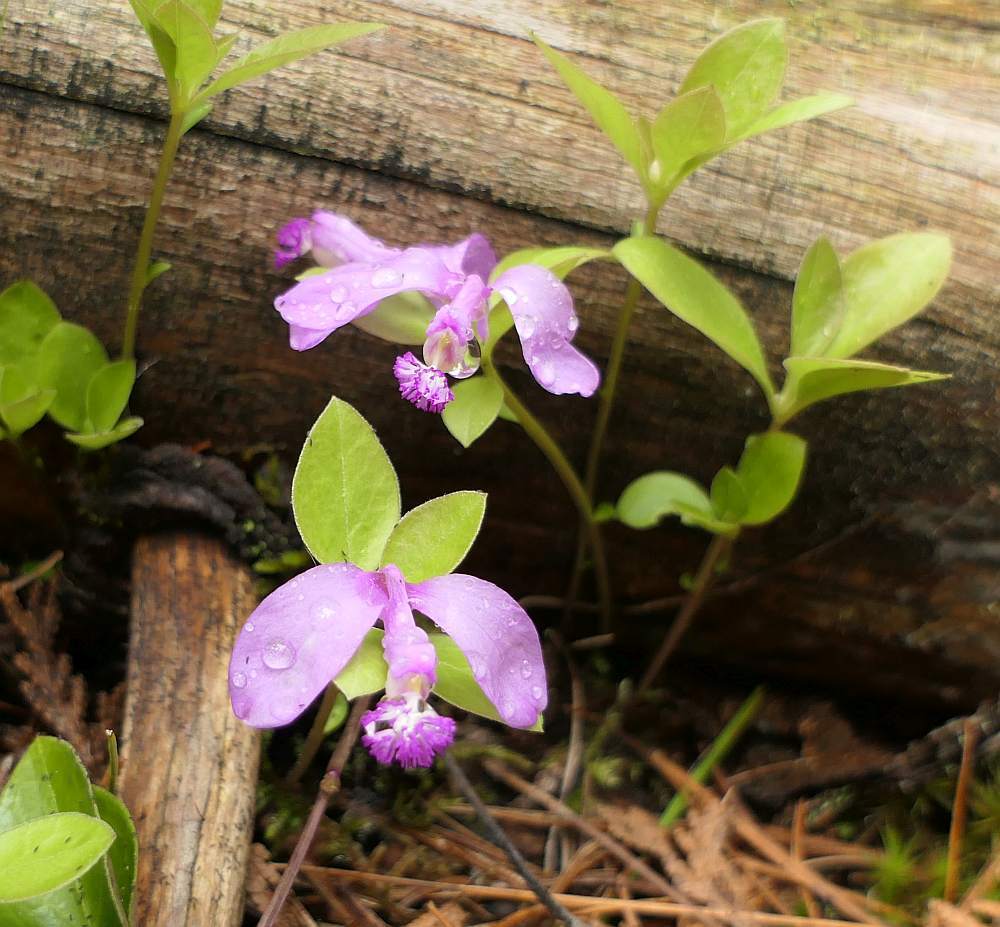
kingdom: Plantae
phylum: Tracheophyta
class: Magnoliopsida
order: Fabales
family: Polygalaceae
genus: Polygaloides
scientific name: Polygaloides paucifolia
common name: Bird-on-the-wing
